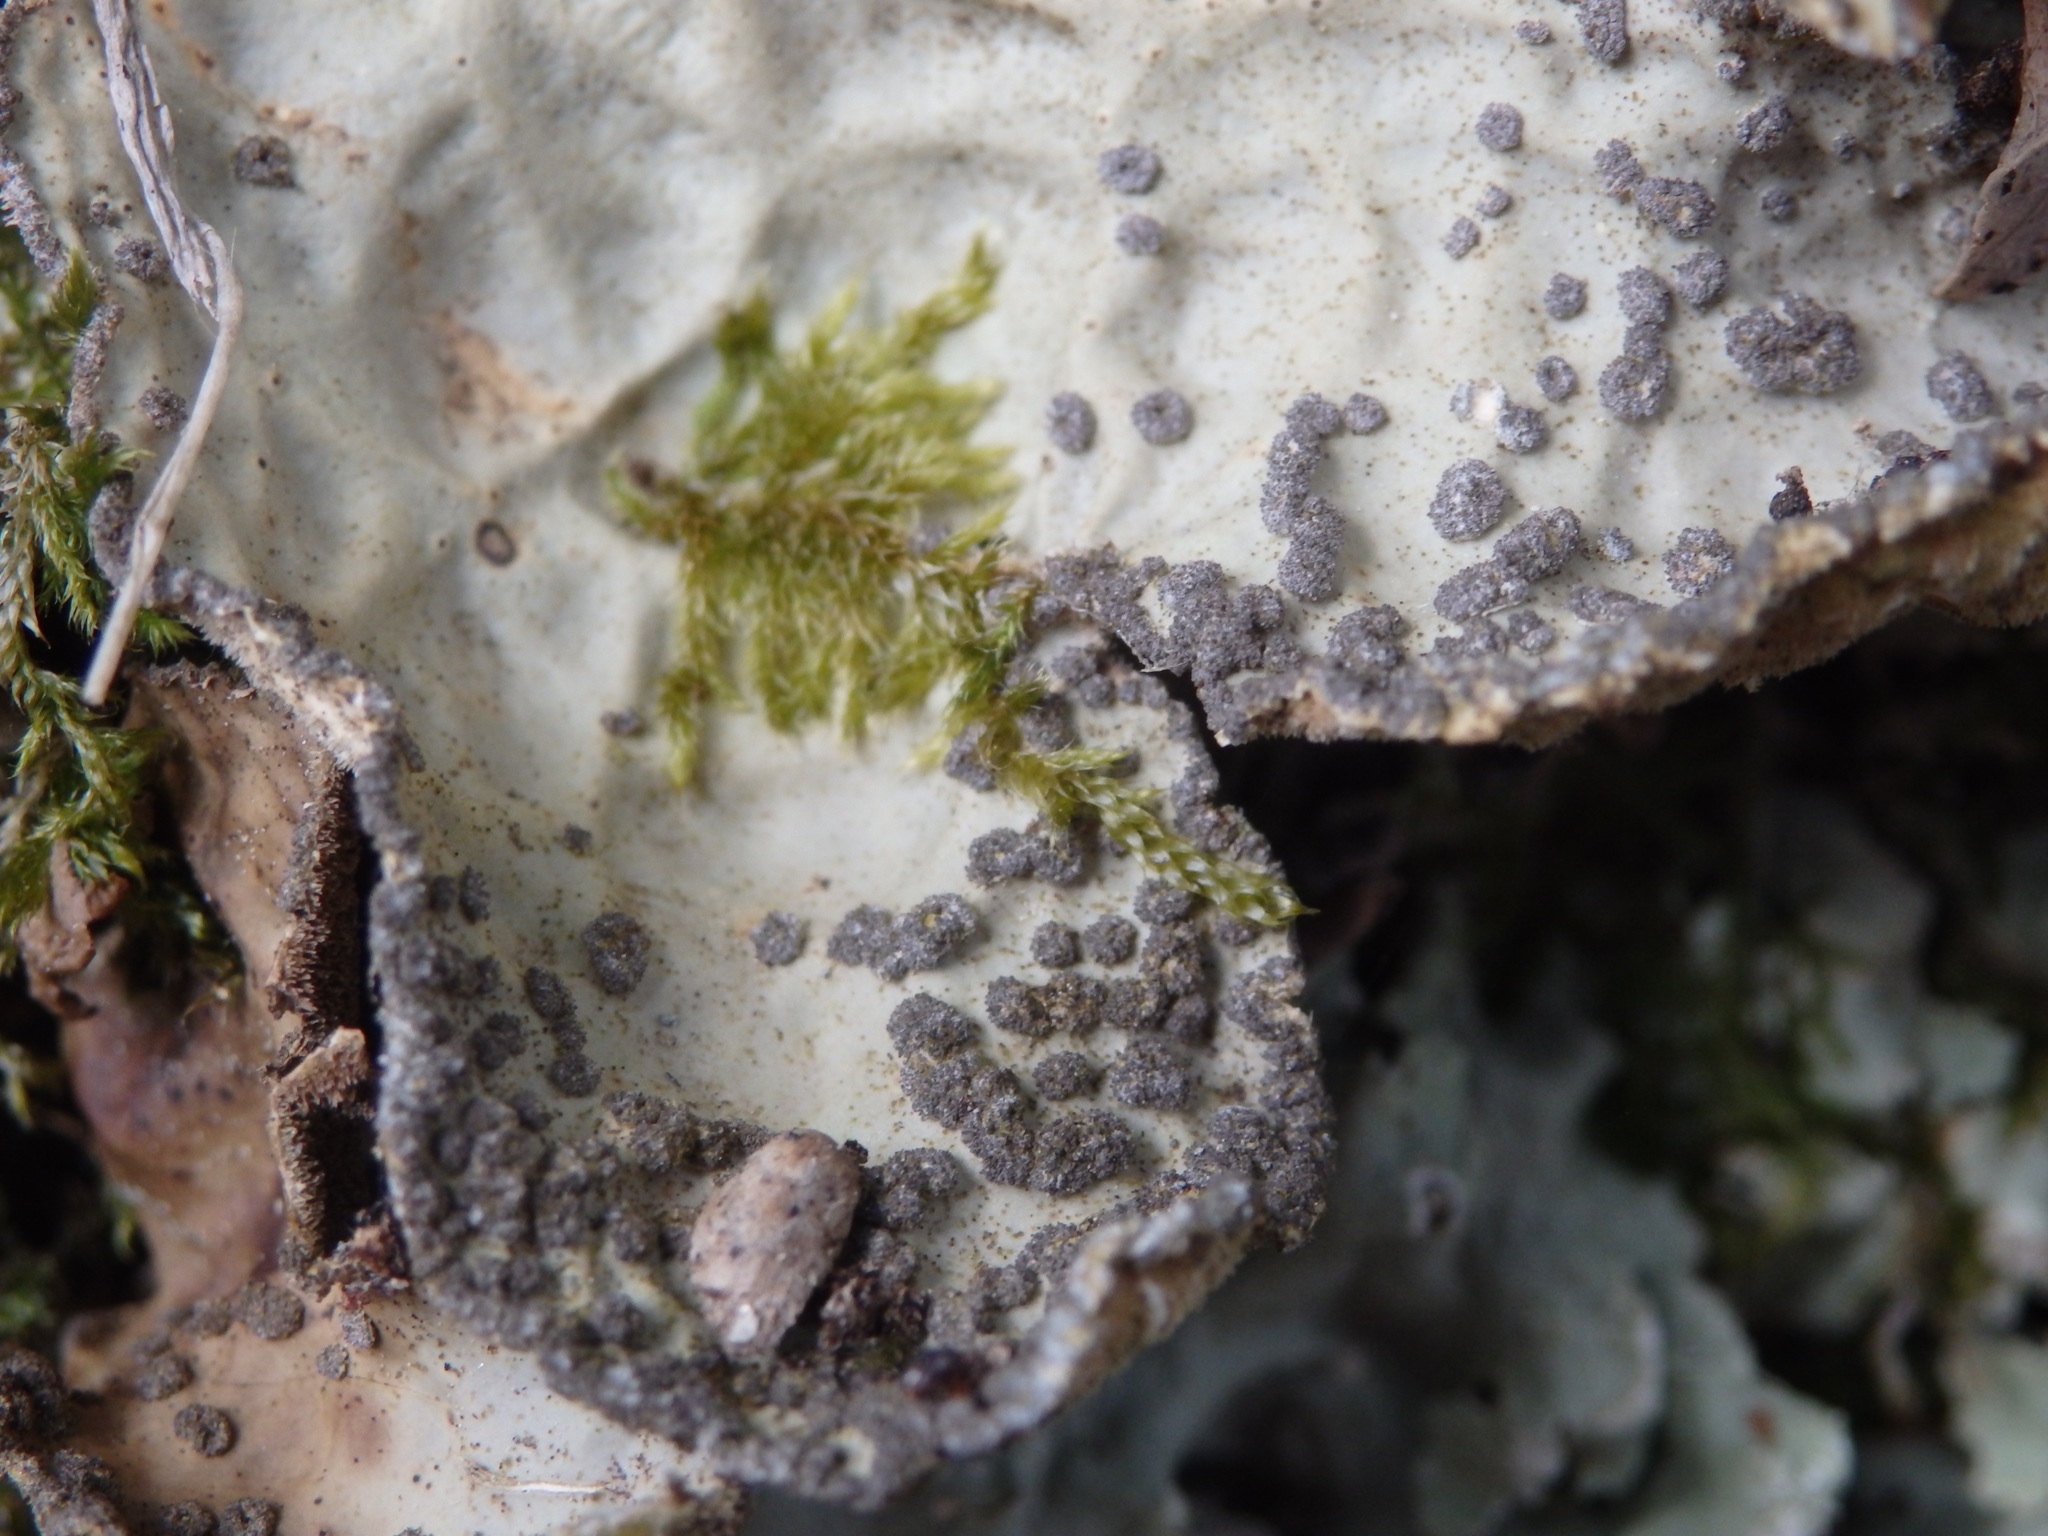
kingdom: Fungi
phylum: Ascomycota
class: Lecanoromycetes
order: Peltigerales
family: Lobariaceae
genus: Lobarina
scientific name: Lobarina scrobiculata
